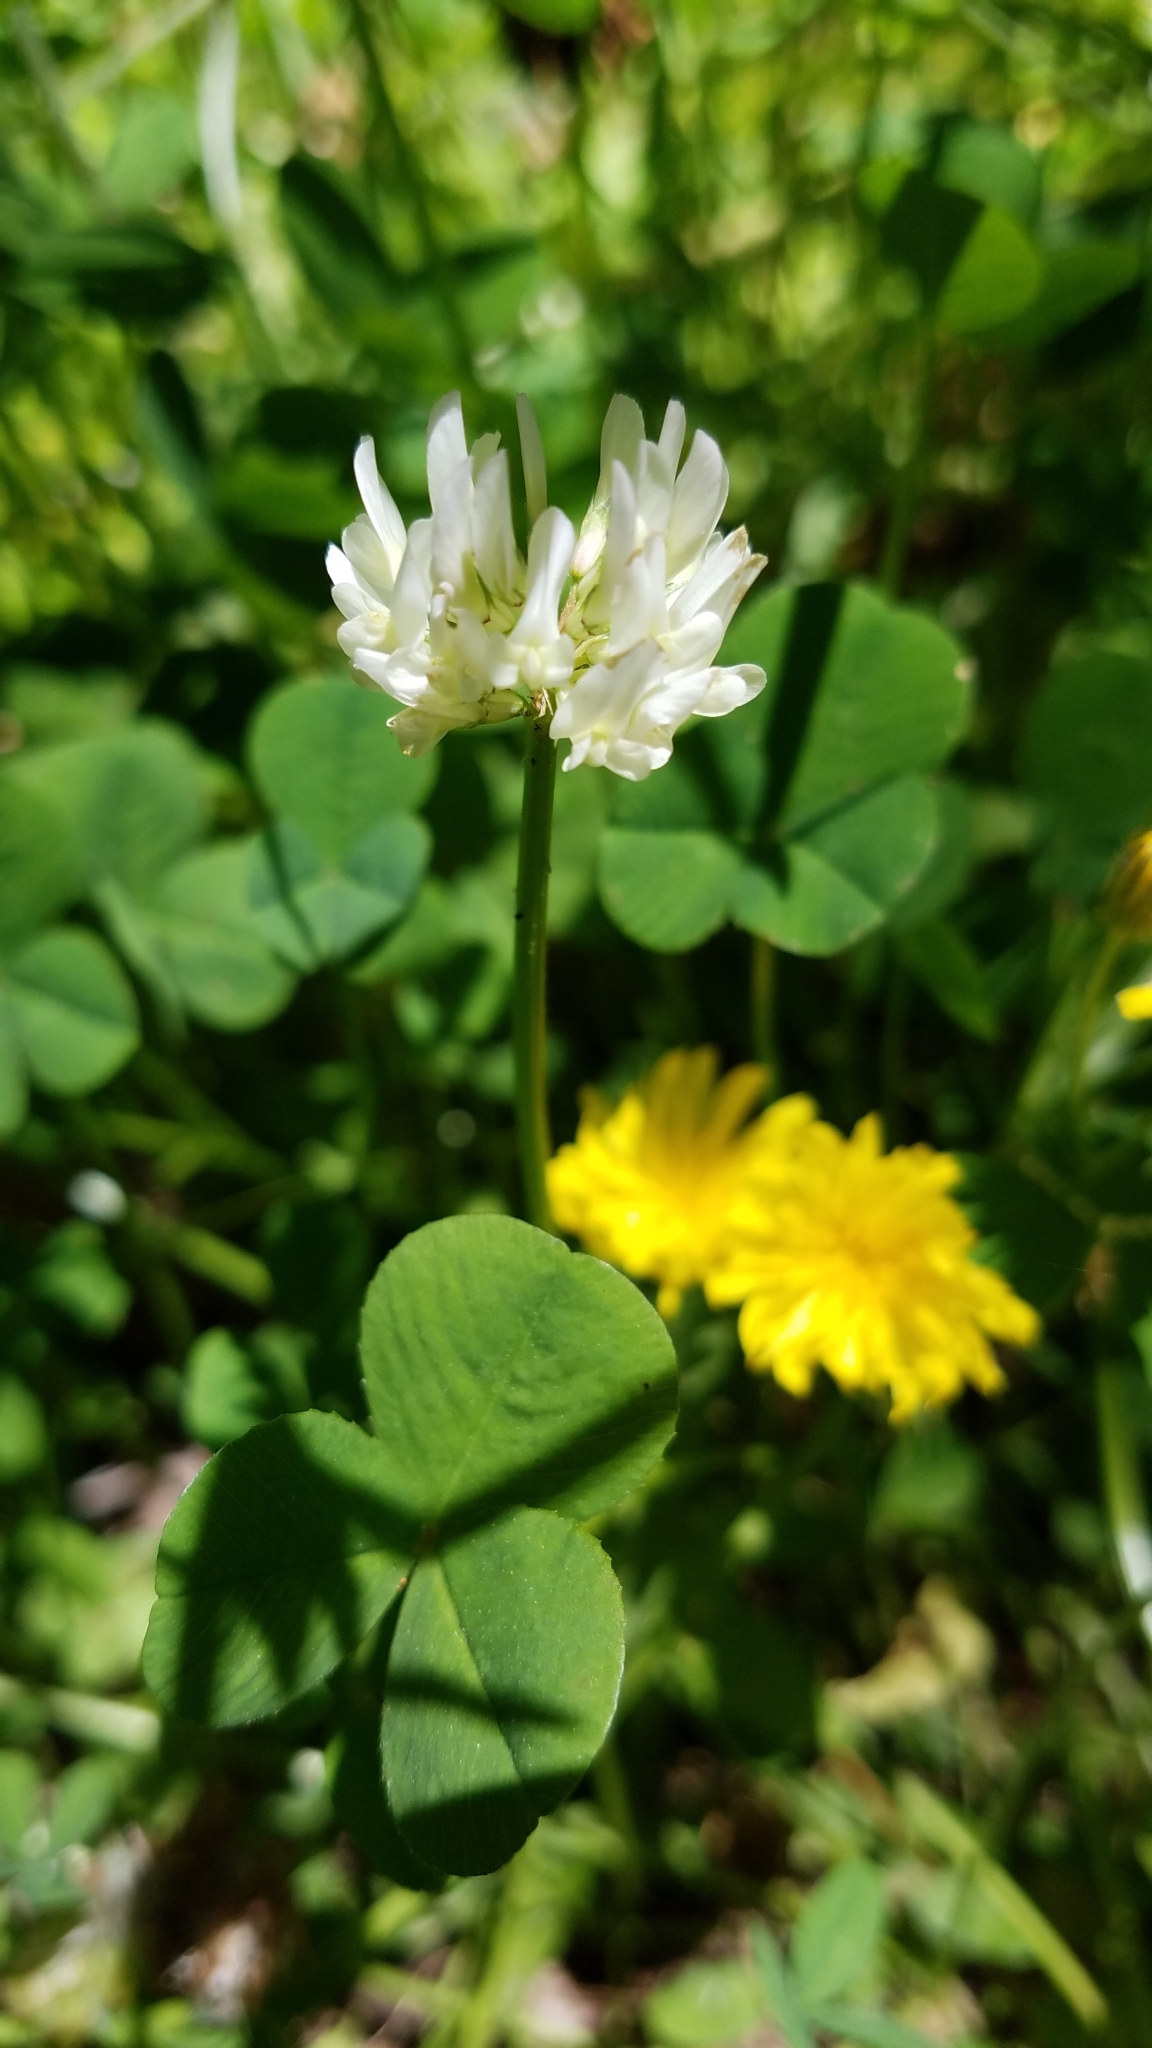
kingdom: Plantae
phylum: Tracheophyta
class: Magnoliopsida
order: Fabales
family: Fabaceae
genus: Trifolium
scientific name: Trifolium repens
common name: White clover
